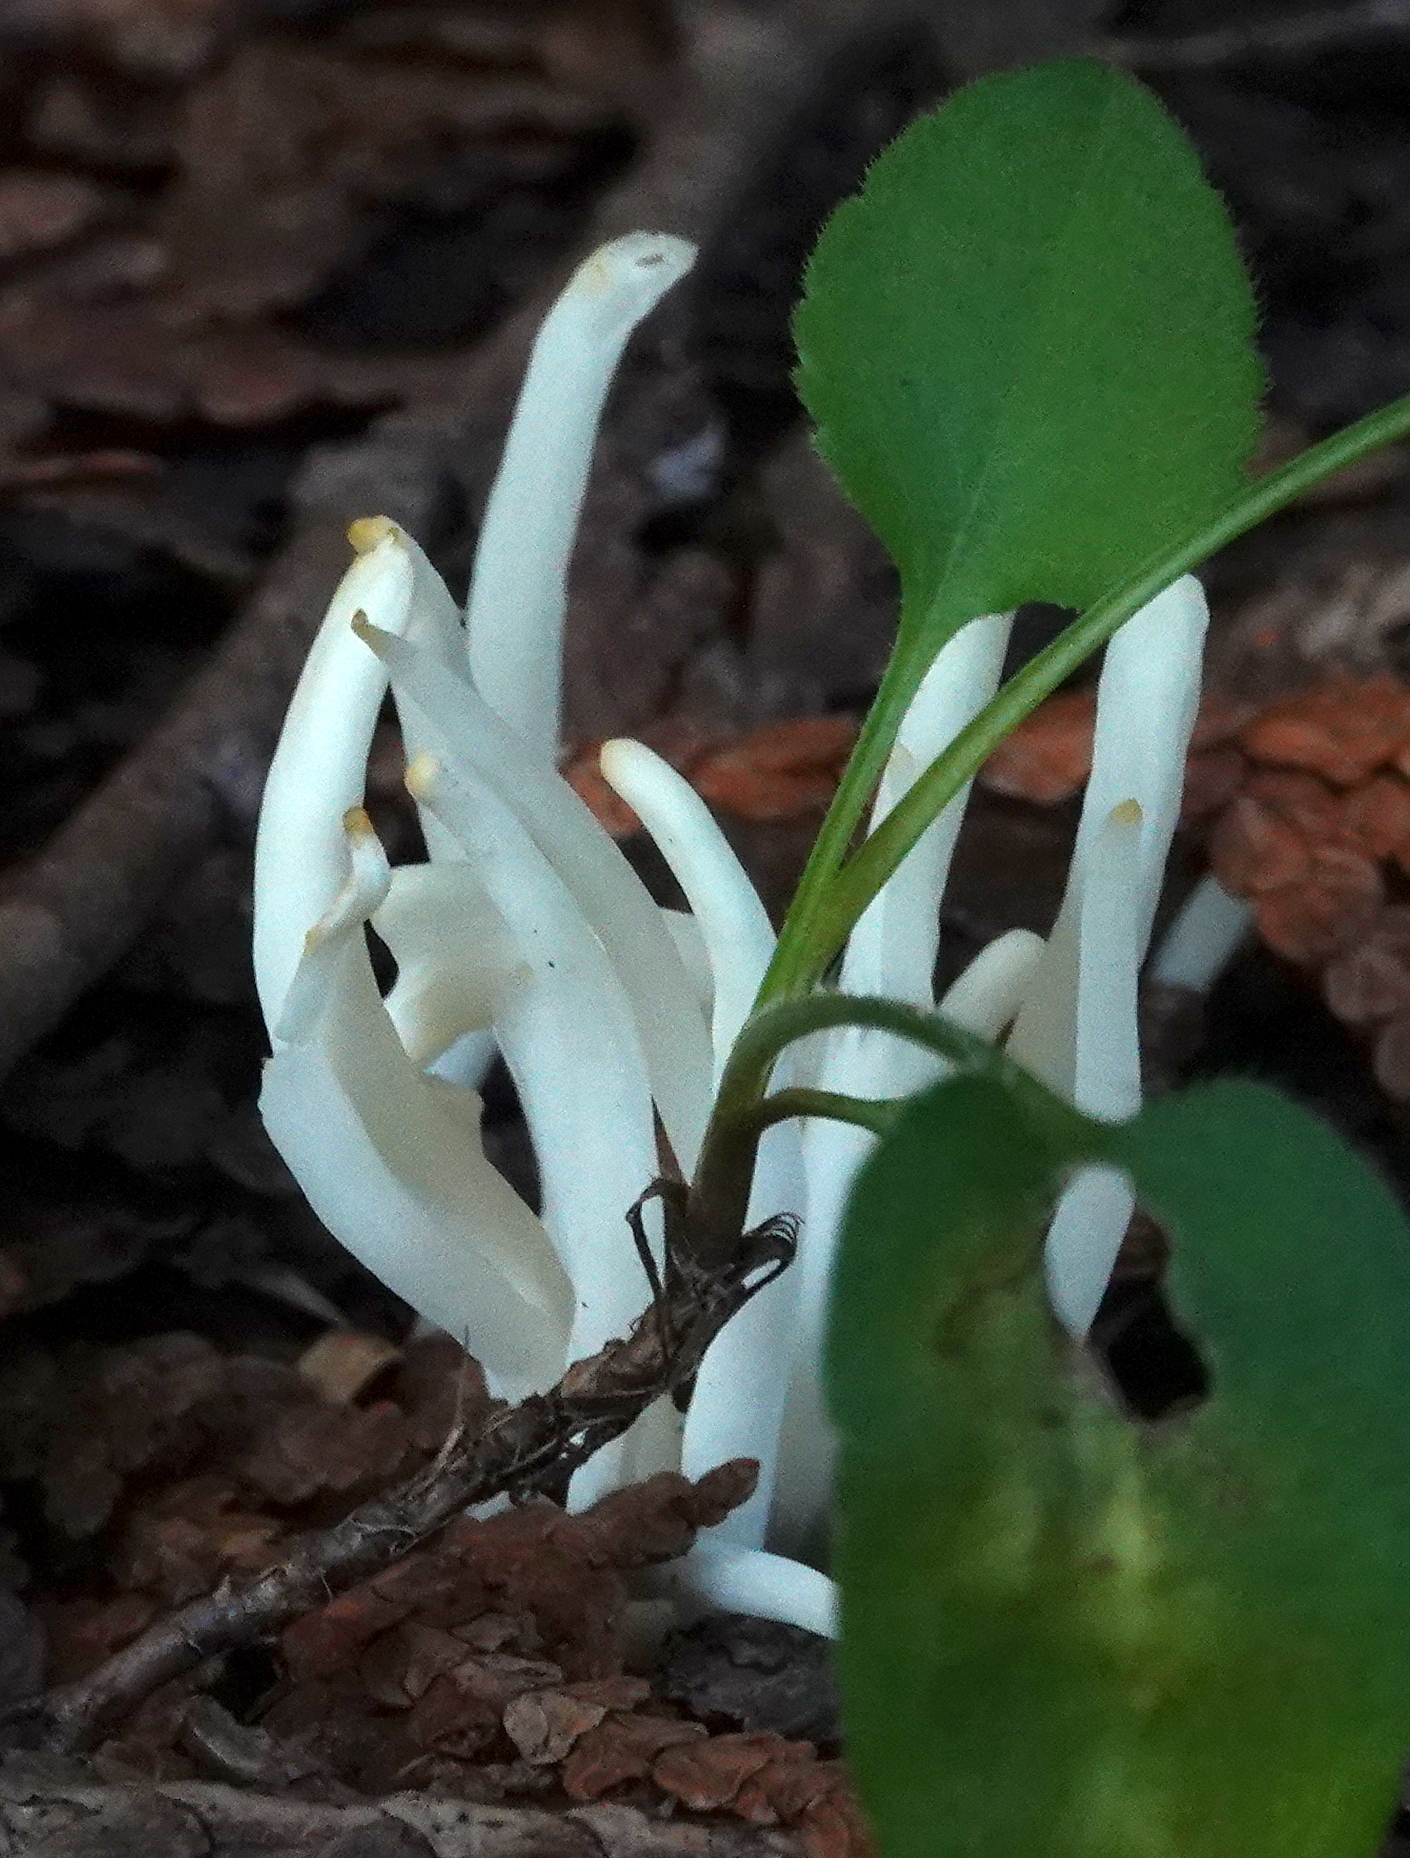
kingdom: Fungi
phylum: Basidiomycota
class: Agaricomycetes
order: Agaricales
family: Clavariaceae
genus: Clavaria
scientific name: Clavaria fragilis
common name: White spindles
